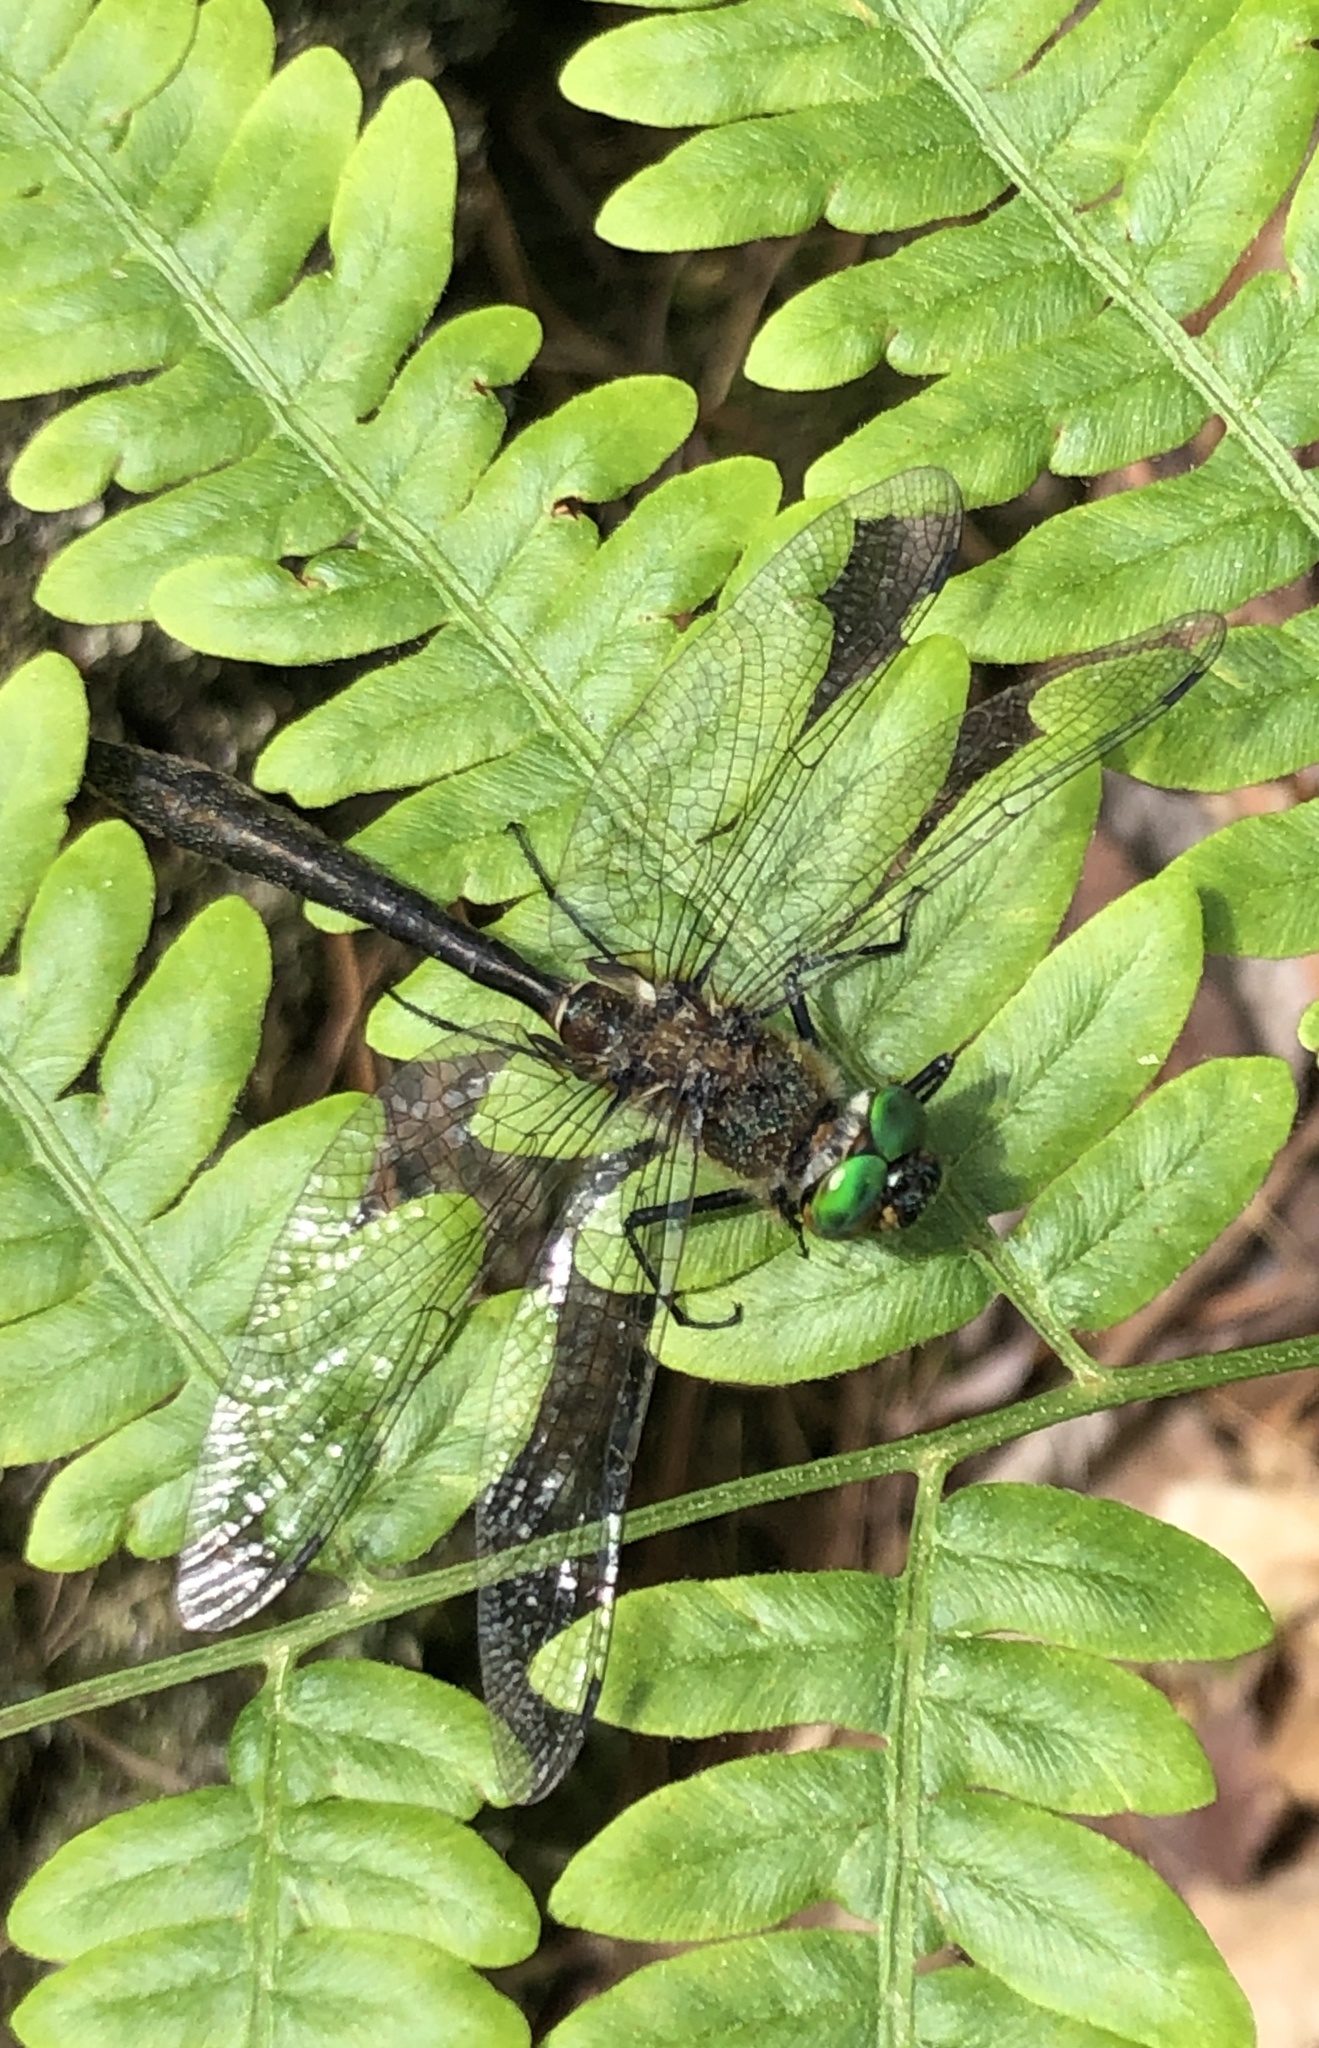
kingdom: Animalia
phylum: Arthropoda
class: Insecta
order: Odonata
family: Corduliidae
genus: Cordulia
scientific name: Cordulia shurtleffii
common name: American emerald
